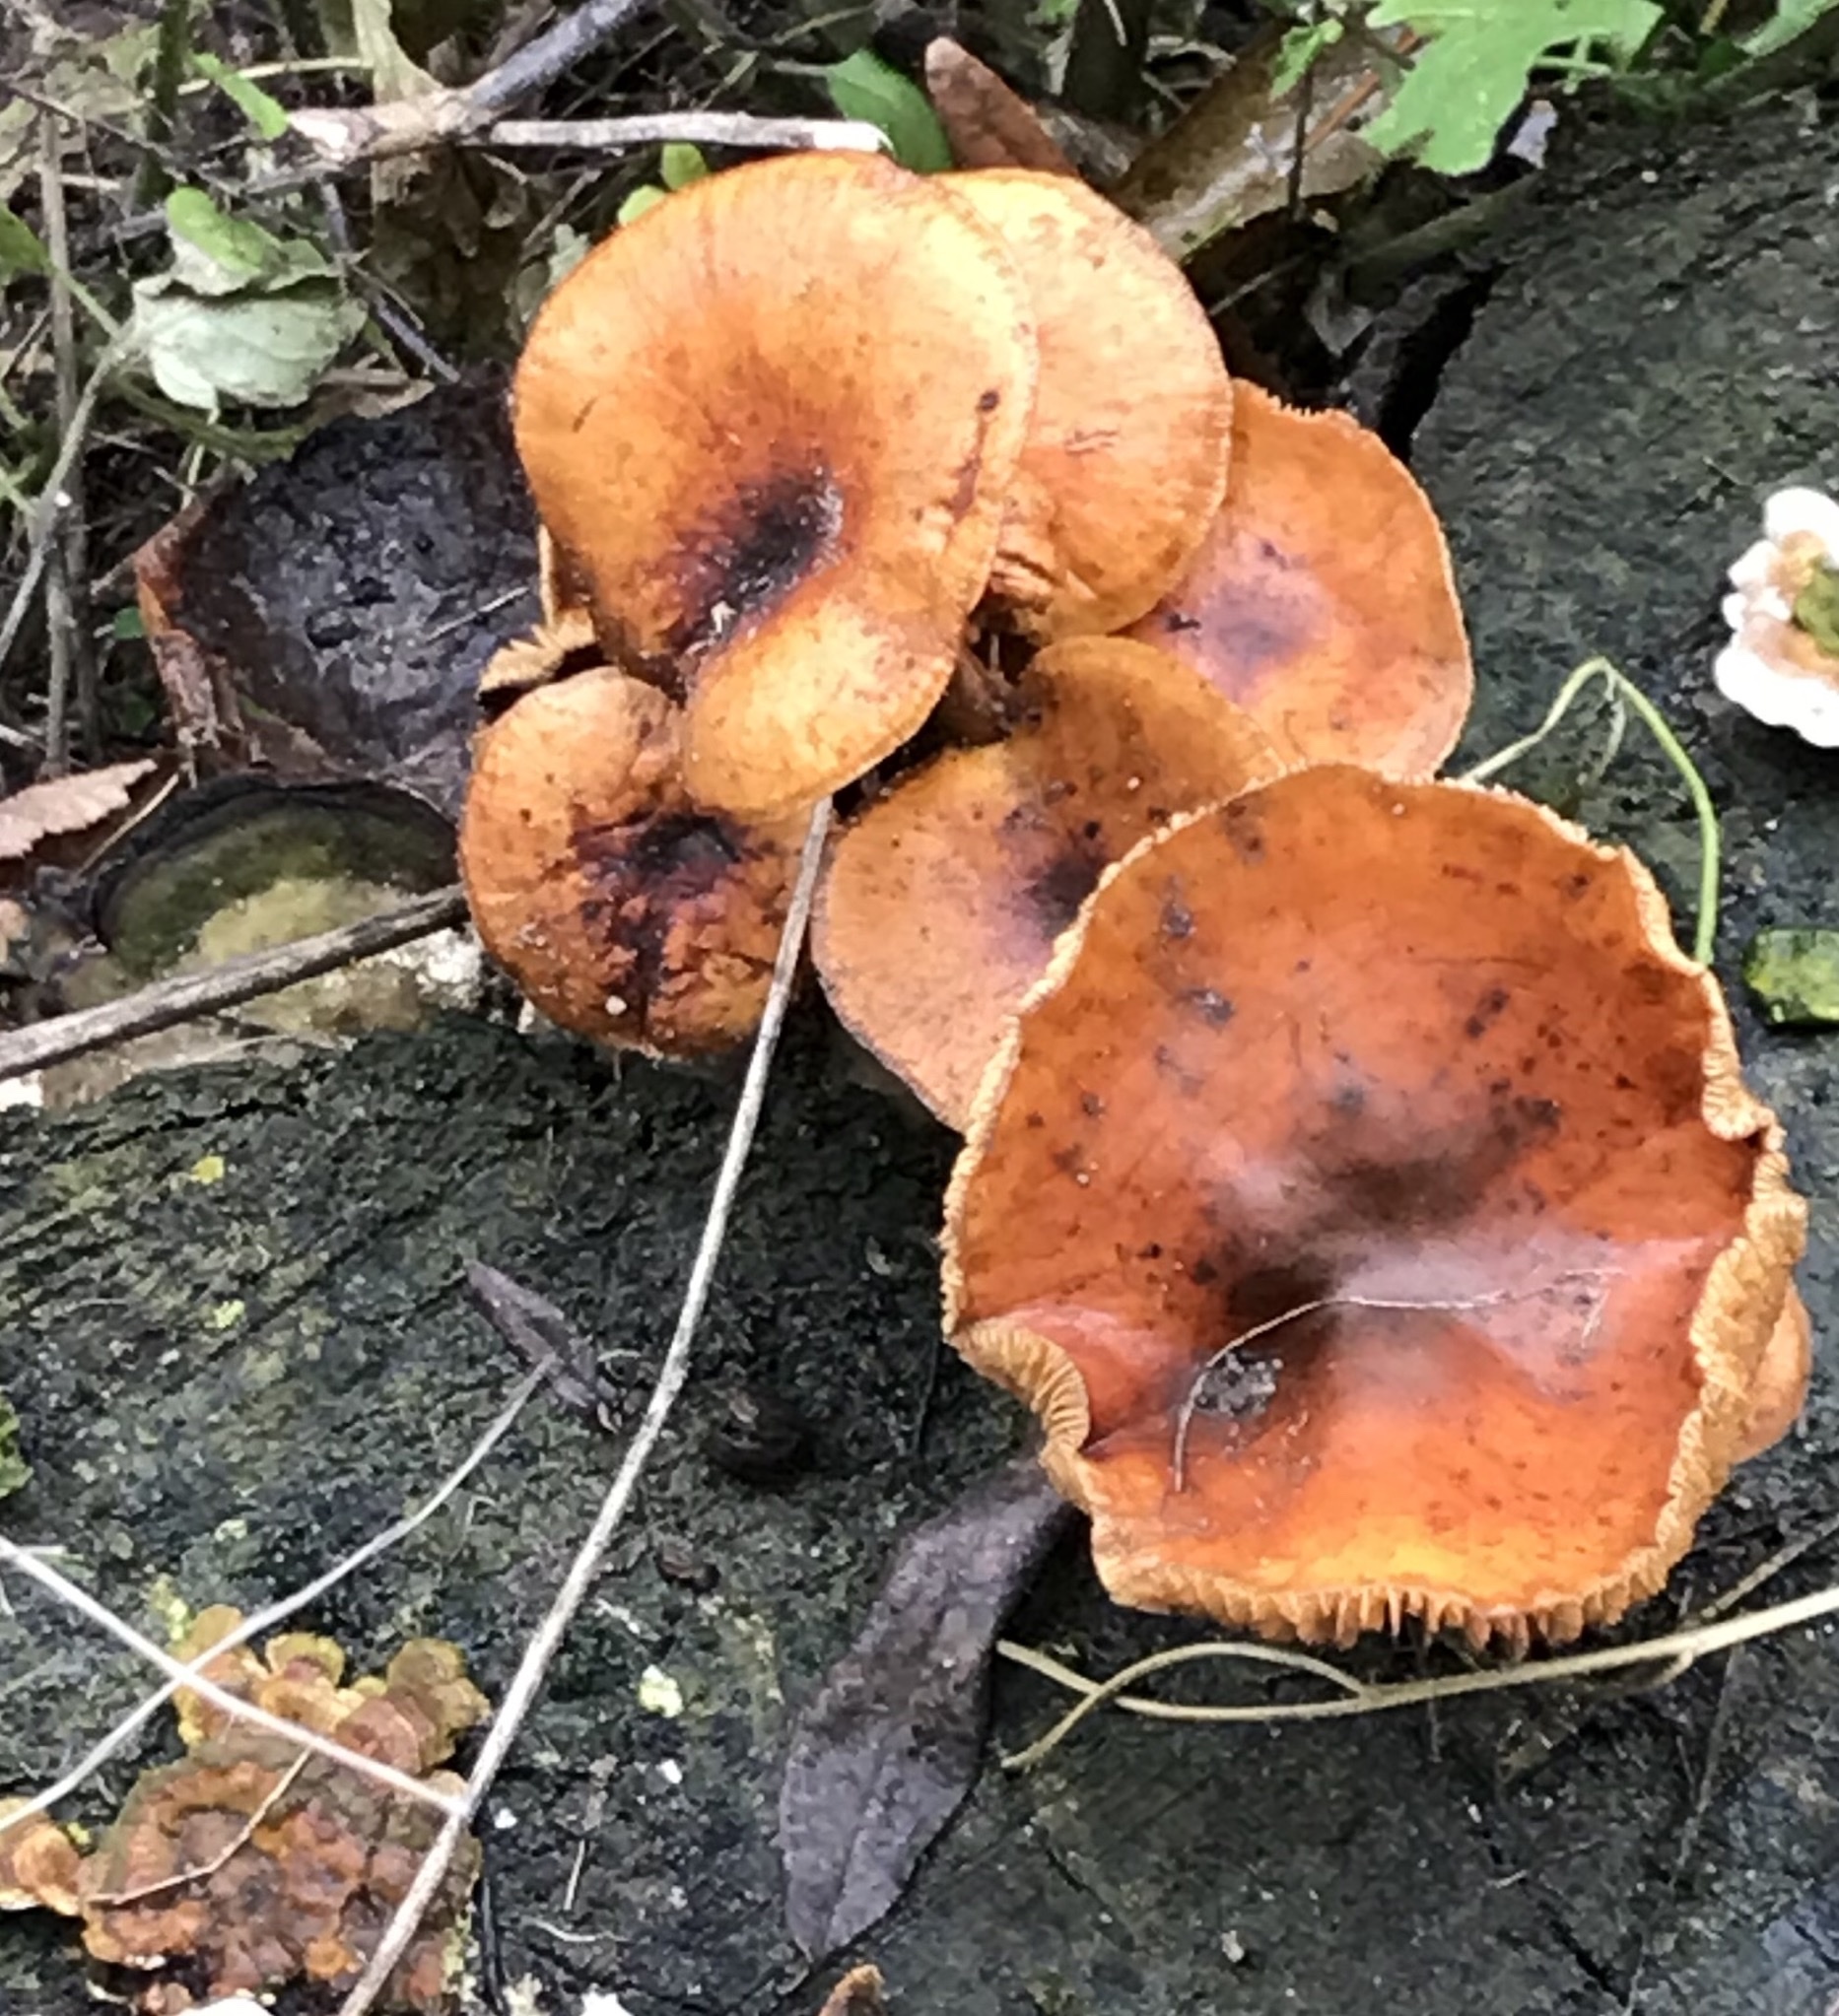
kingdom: Fungi
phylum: Basidiomycota
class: Agaricomycetes
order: Agaricales
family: Physalacriaceae
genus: Flammulina
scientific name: Flammulina
